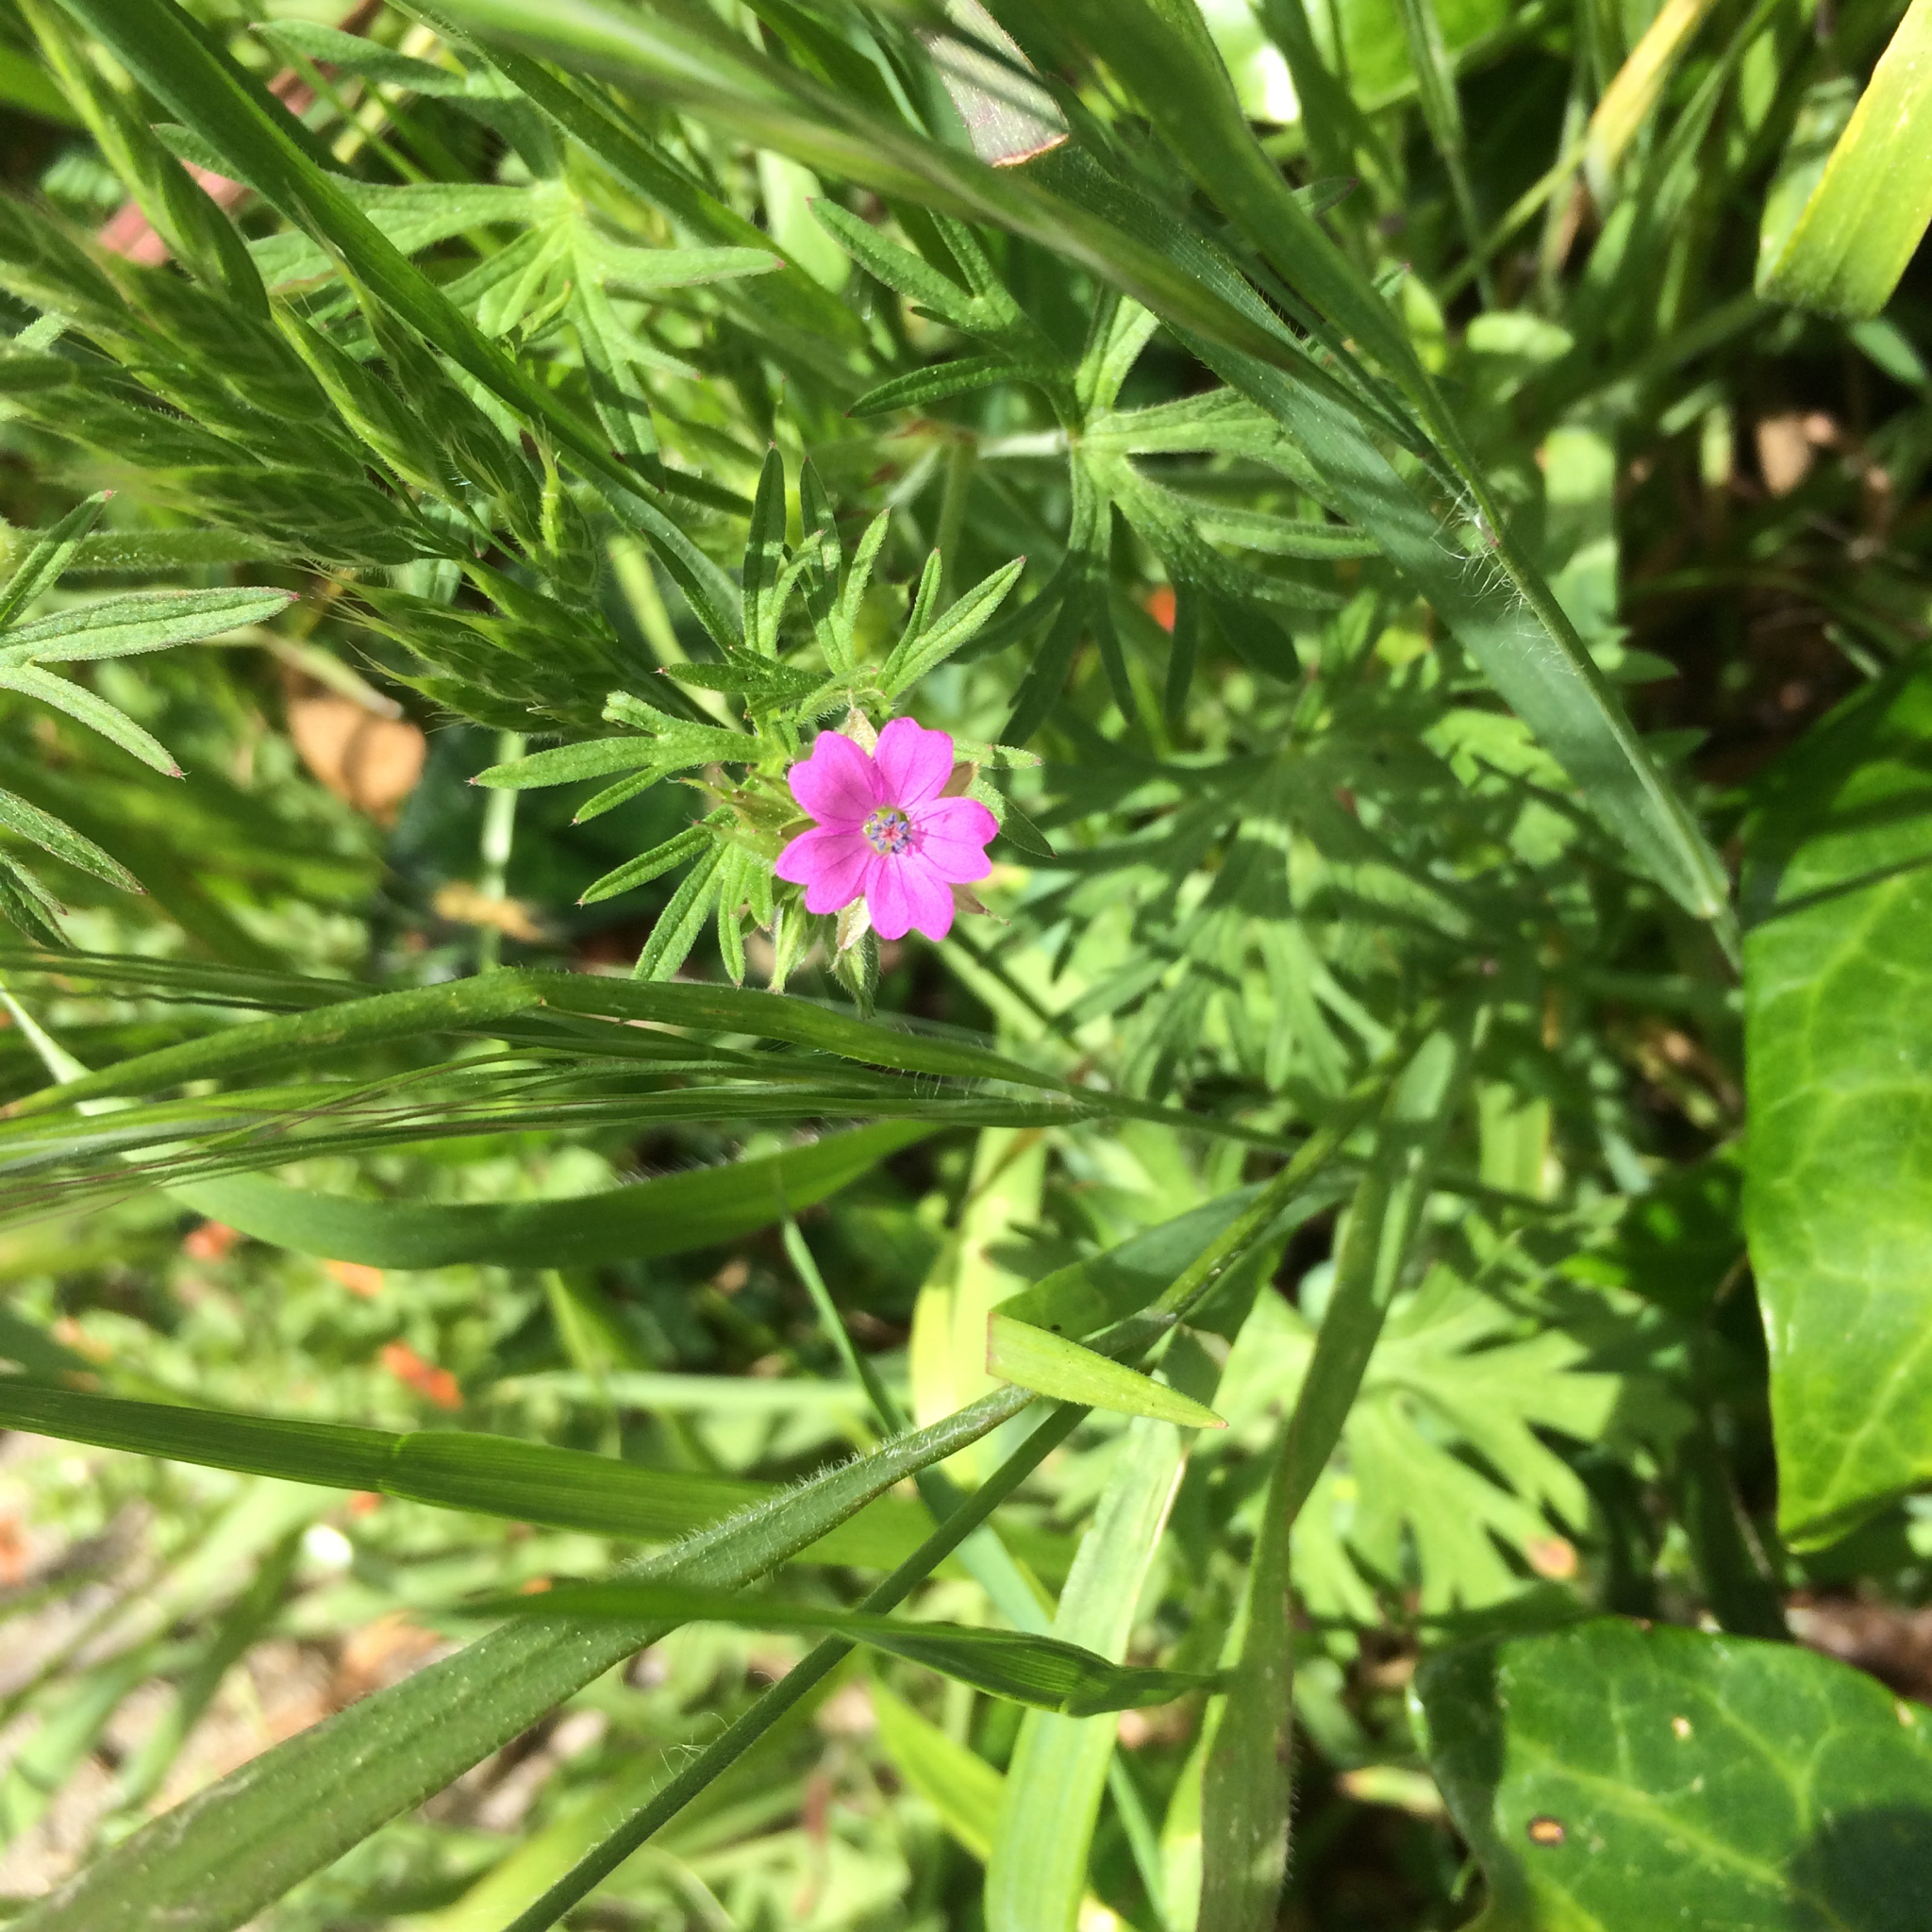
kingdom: Plantae
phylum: Tracheophyta
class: Magnoliopsida
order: Geraniales
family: Geraniaceae
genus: Geranium
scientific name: Geranium dissectum
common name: Cut-leaved crane's-bill
